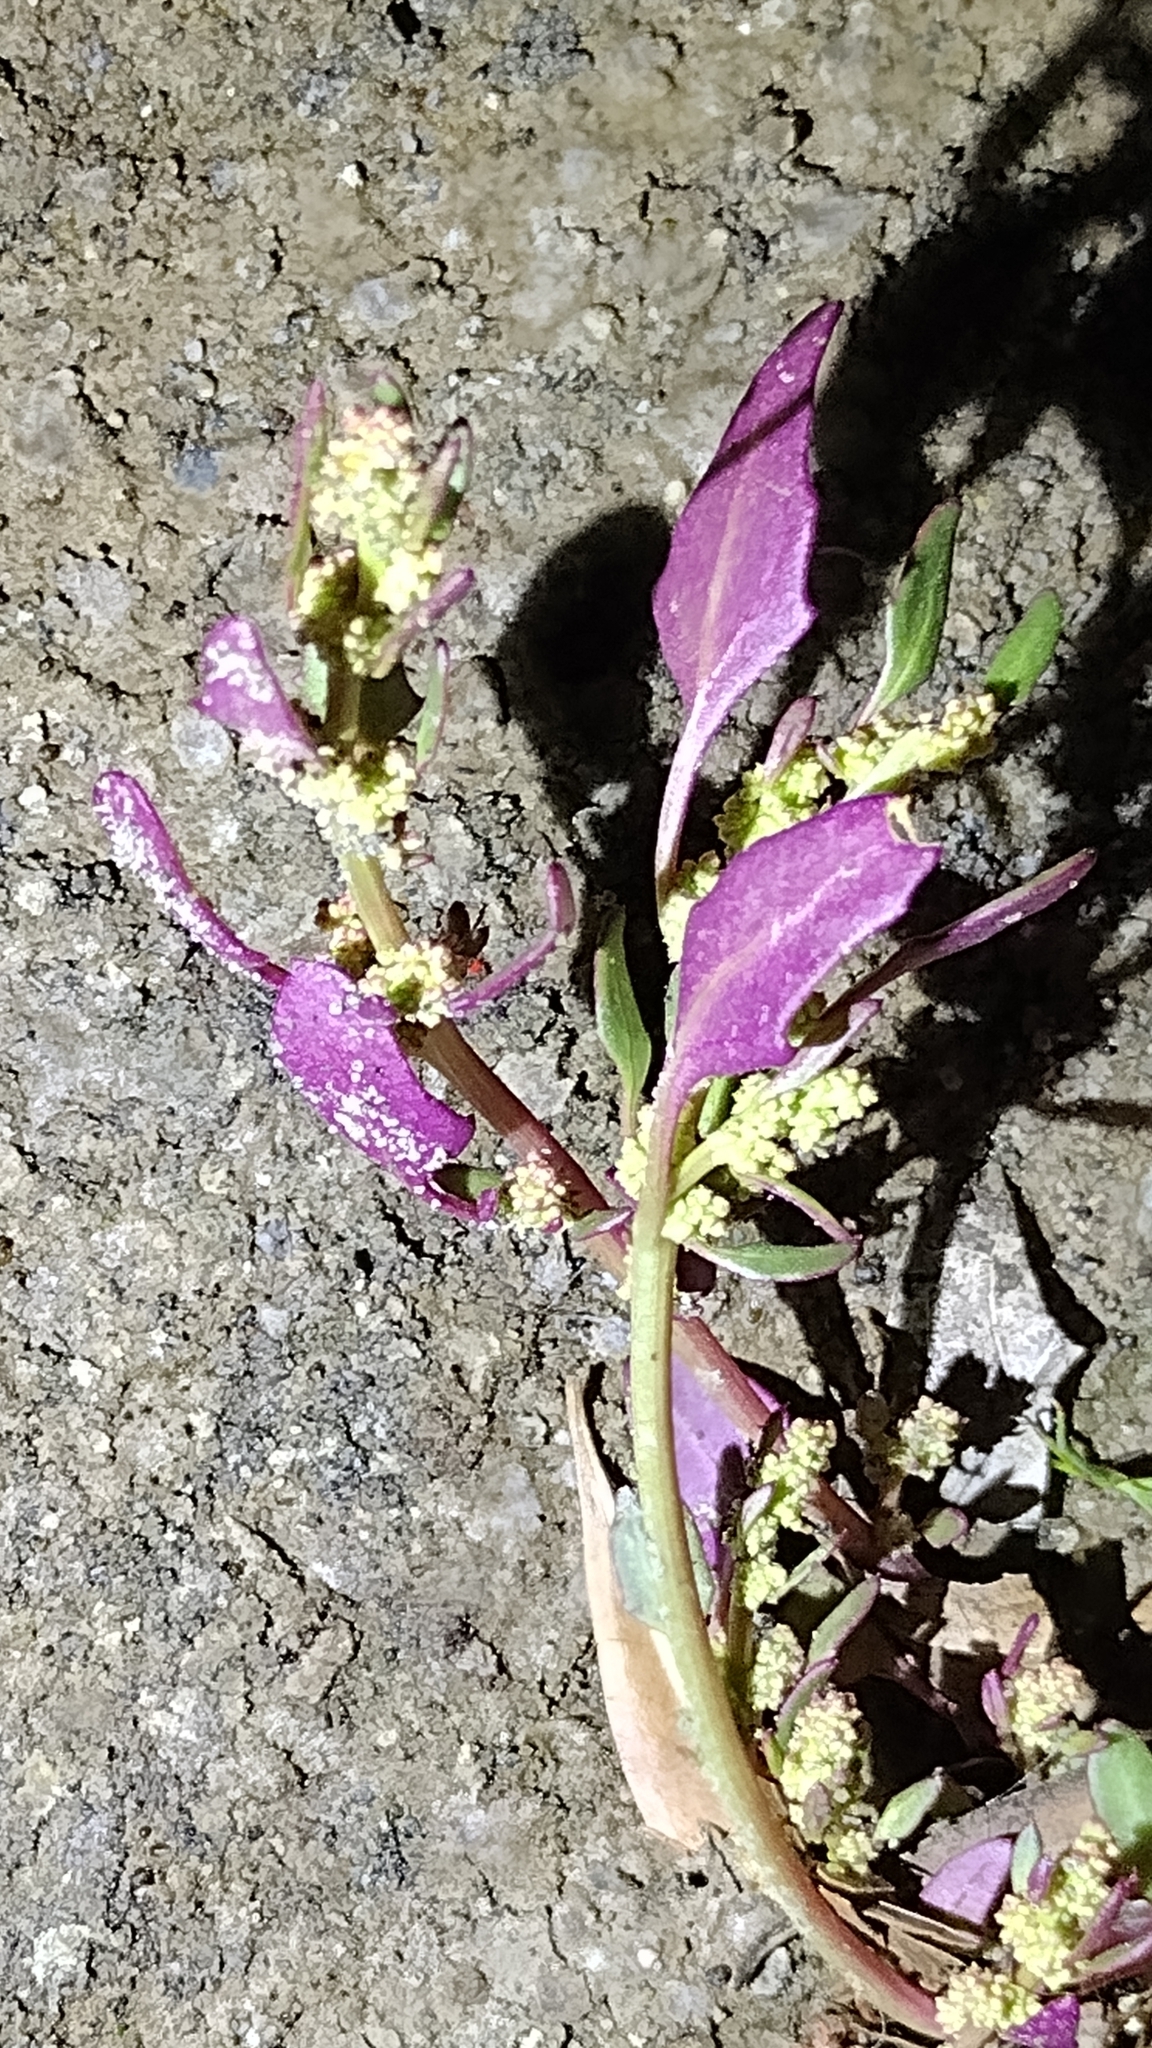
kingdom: Plantae
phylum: Tracheophyta
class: Magnoliopsida
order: Caryophyllales
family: Amaranthaceae
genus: Blitum
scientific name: Blitum nuttallianum
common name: Poverty-weed
